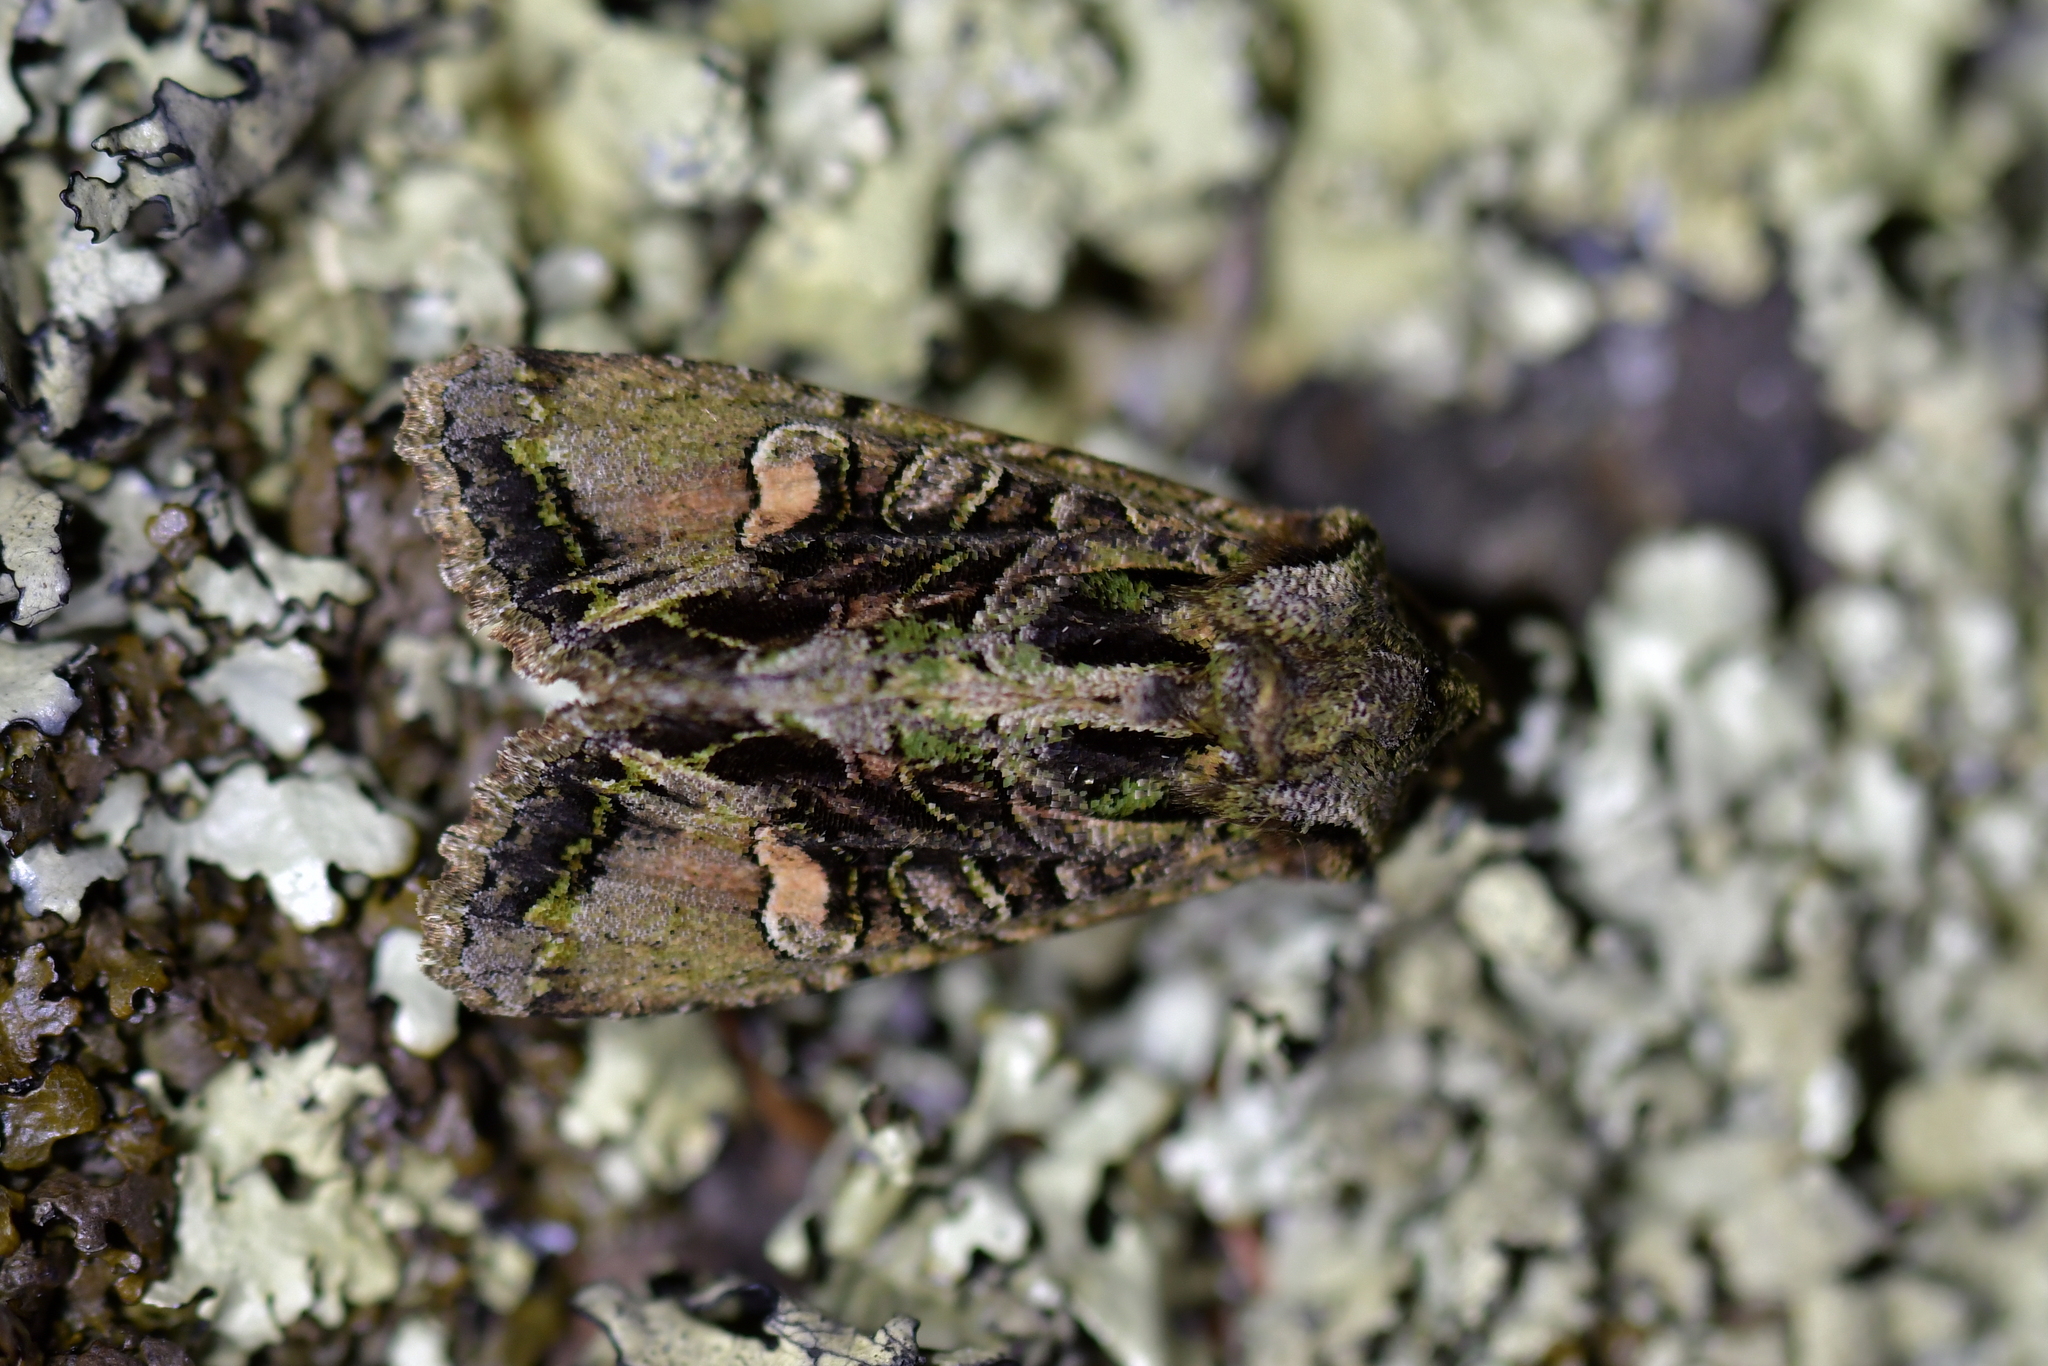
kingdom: Animalia
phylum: Arthropoda
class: Insecta
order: Lepidoptera
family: Noctuidae
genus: Ichneutica
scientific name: Ichneutica insignis
